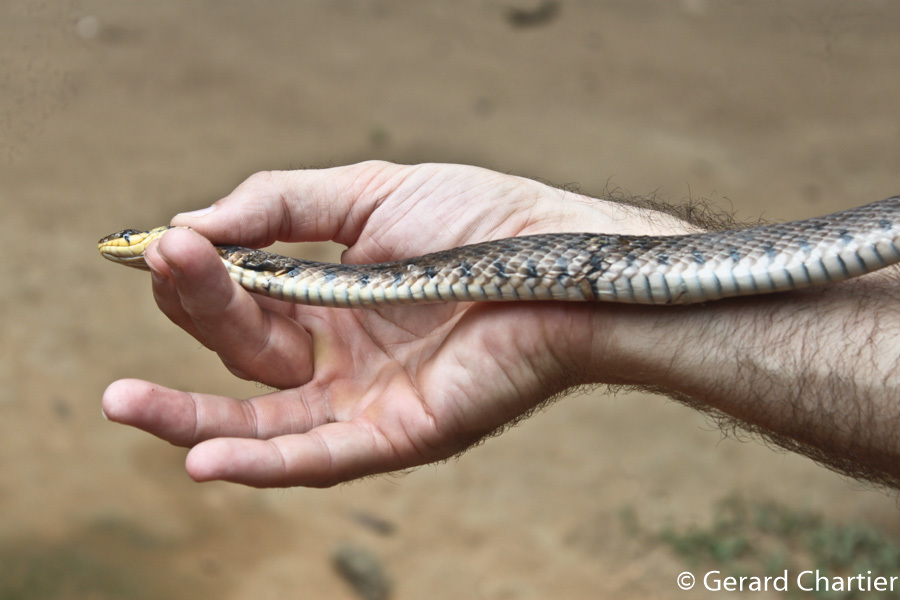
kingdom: Animalia
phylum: Chordata
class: Squamata
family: Colubridae
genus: Fowlea
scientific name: Fowlea flavipunctatus
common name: Yellow-spotted keelback
